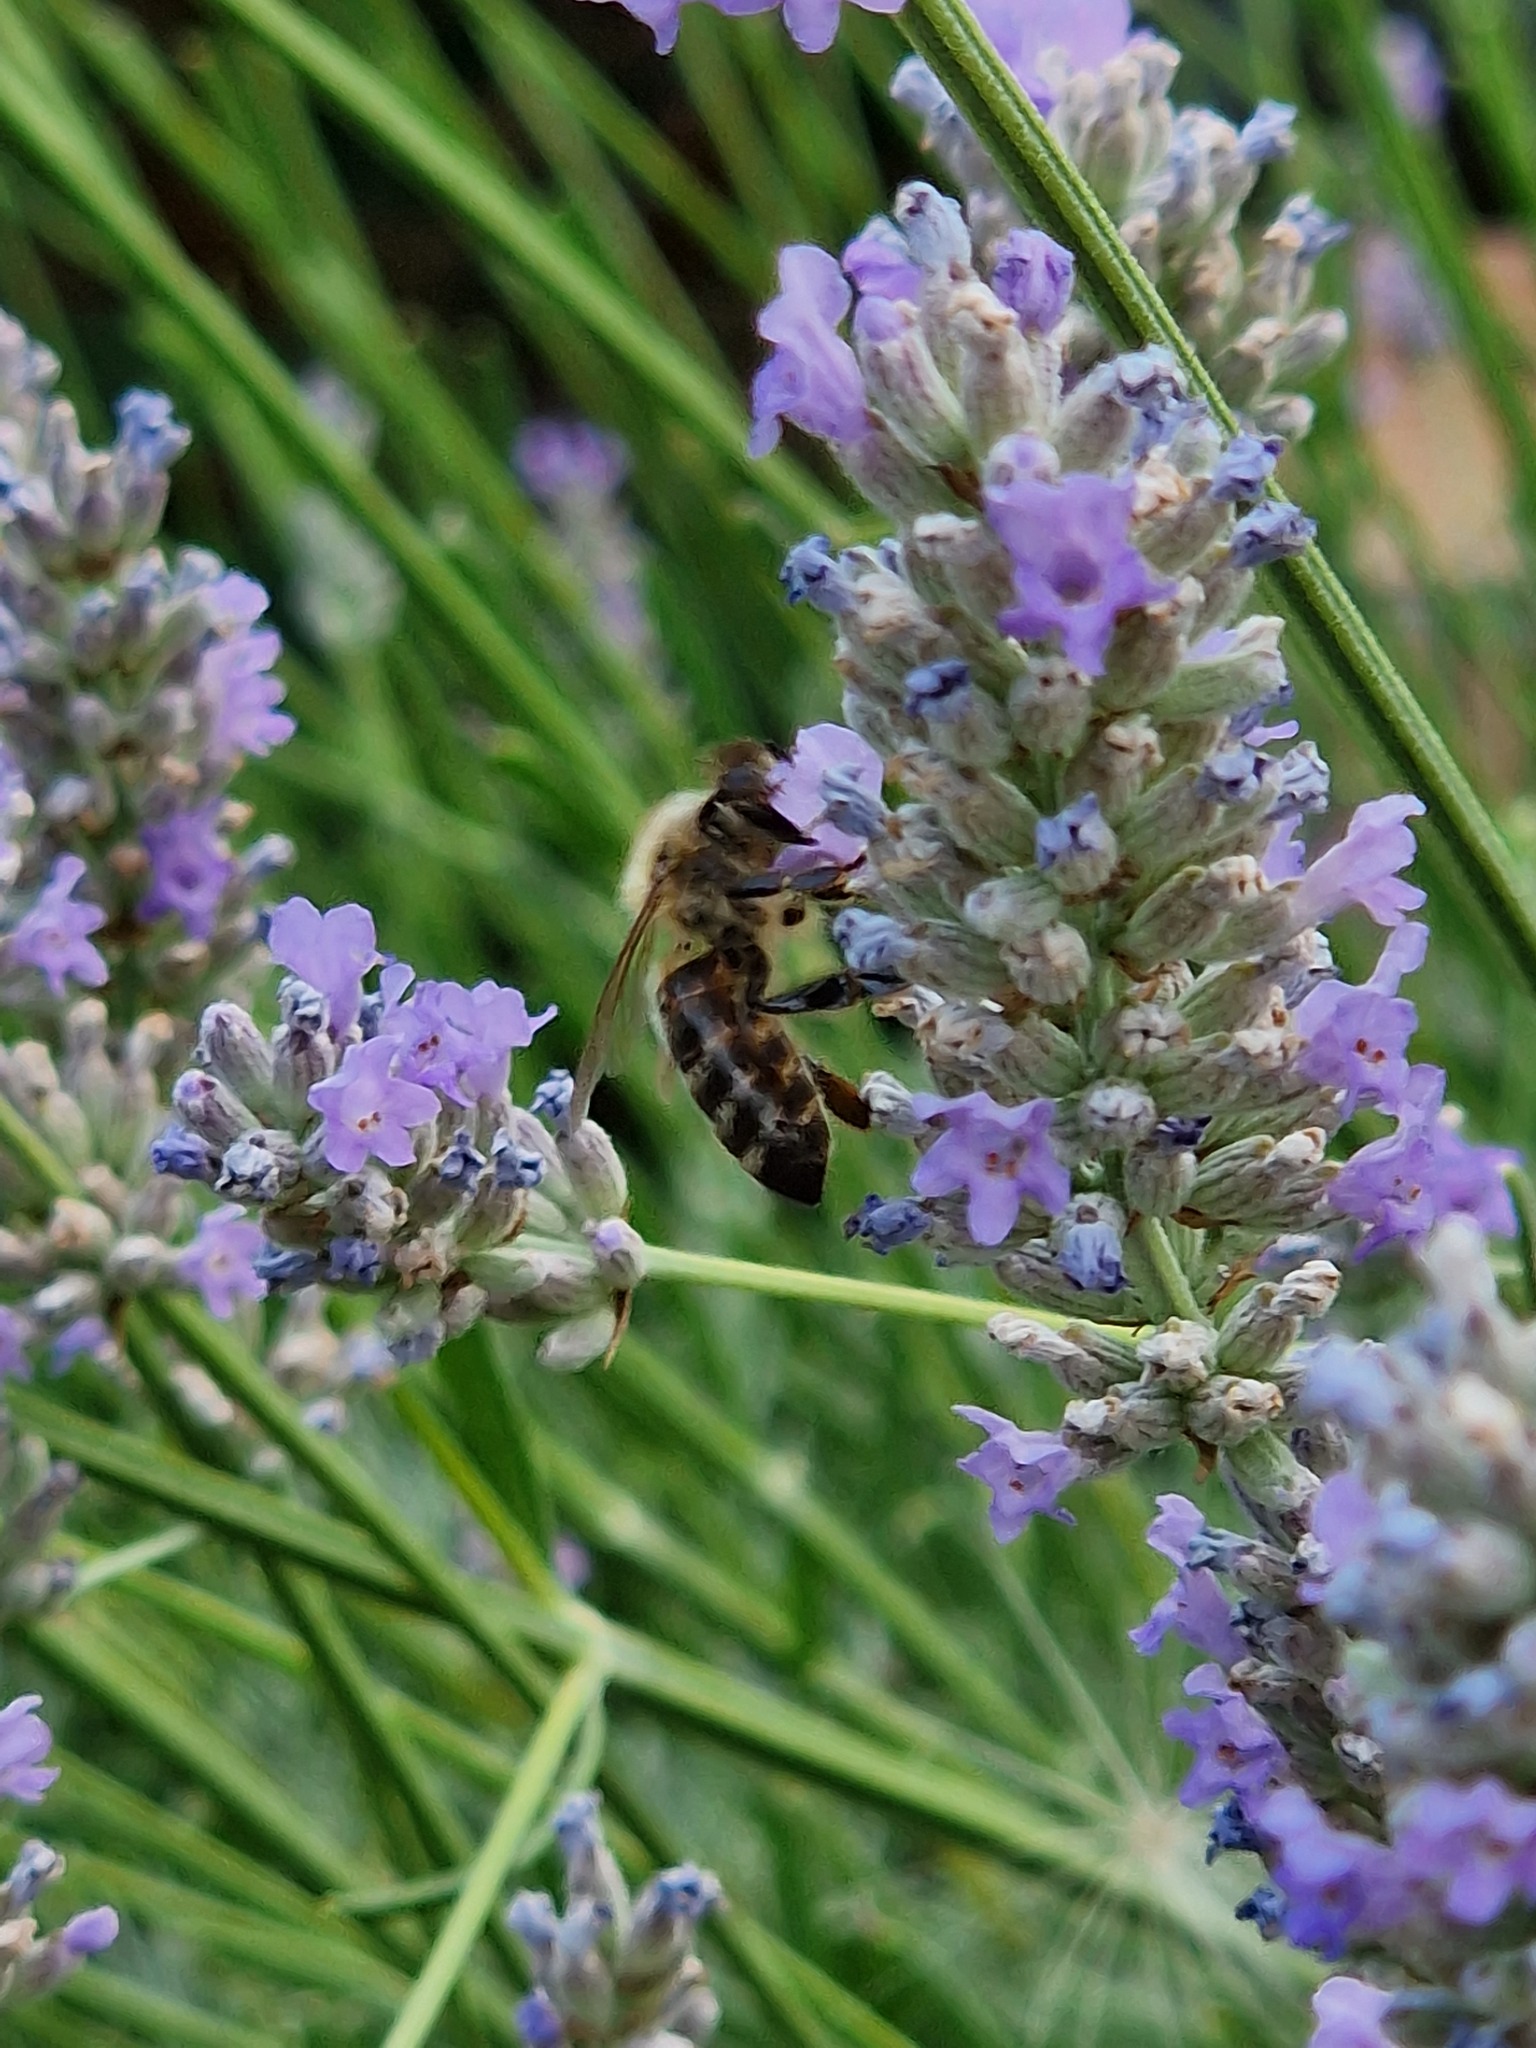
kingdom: Animalia
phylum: Arthropoda
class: Insecta
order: Hymenoptera
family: Apidae
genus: Apis
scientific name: Apis mellifera
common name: Honey bee
